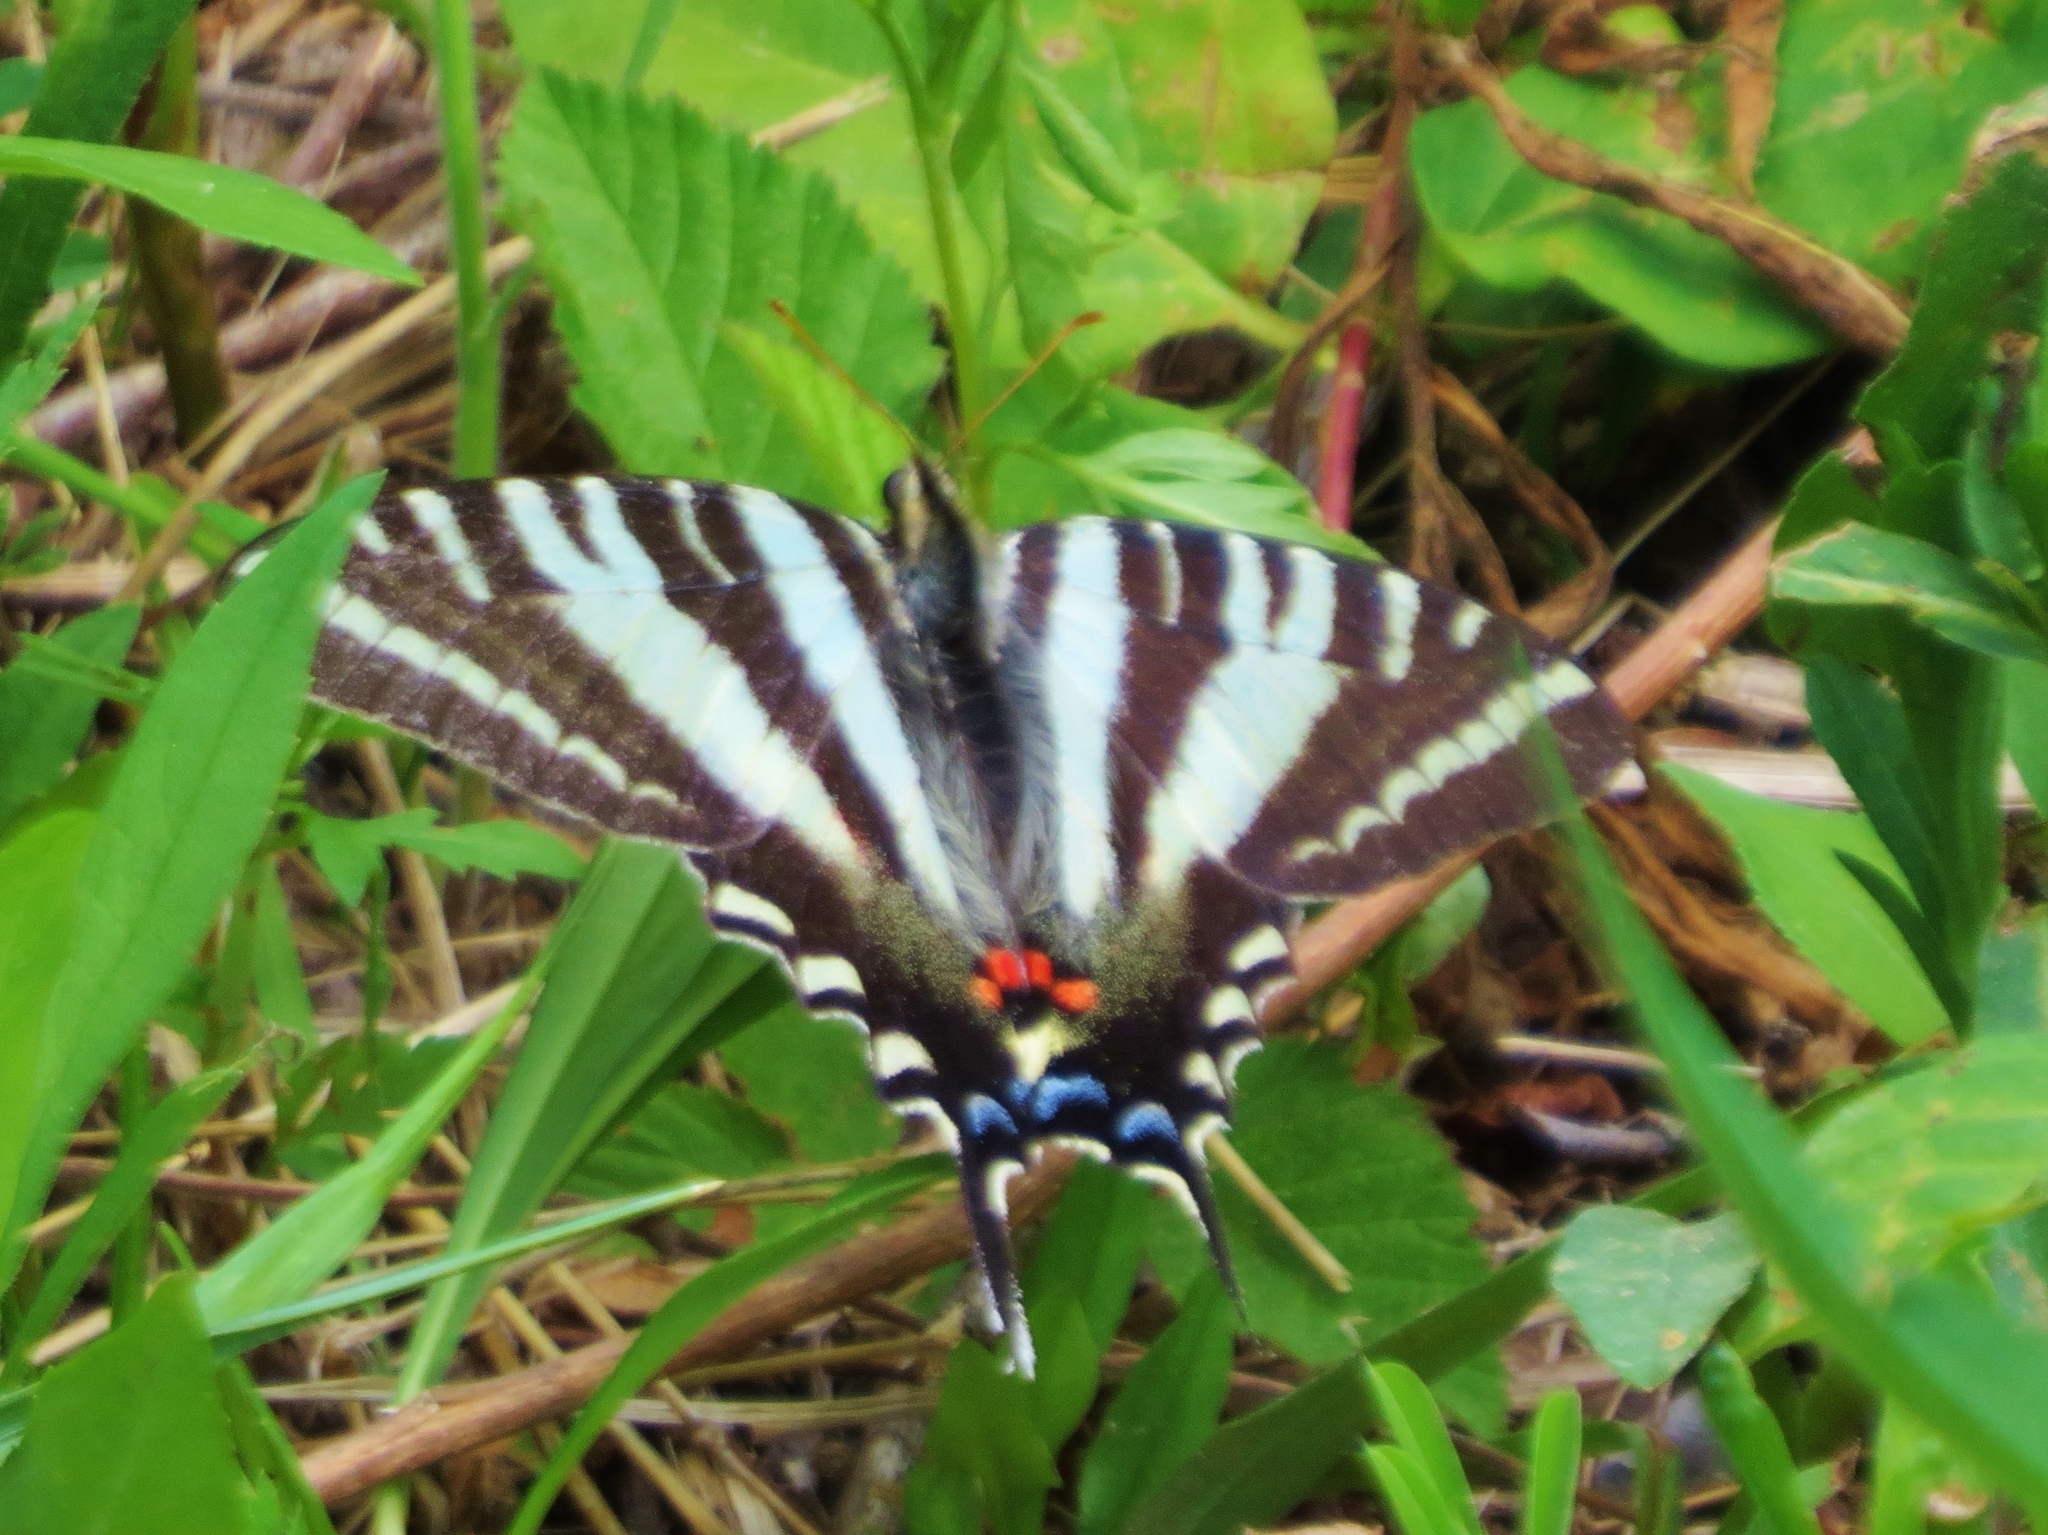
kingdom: Animalia
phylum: Arthropoda
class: Insecta
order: Lepidoptera
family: Papilionidae
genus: Protographium
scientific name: Protographium marcellus
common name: Zebra swallowtail
